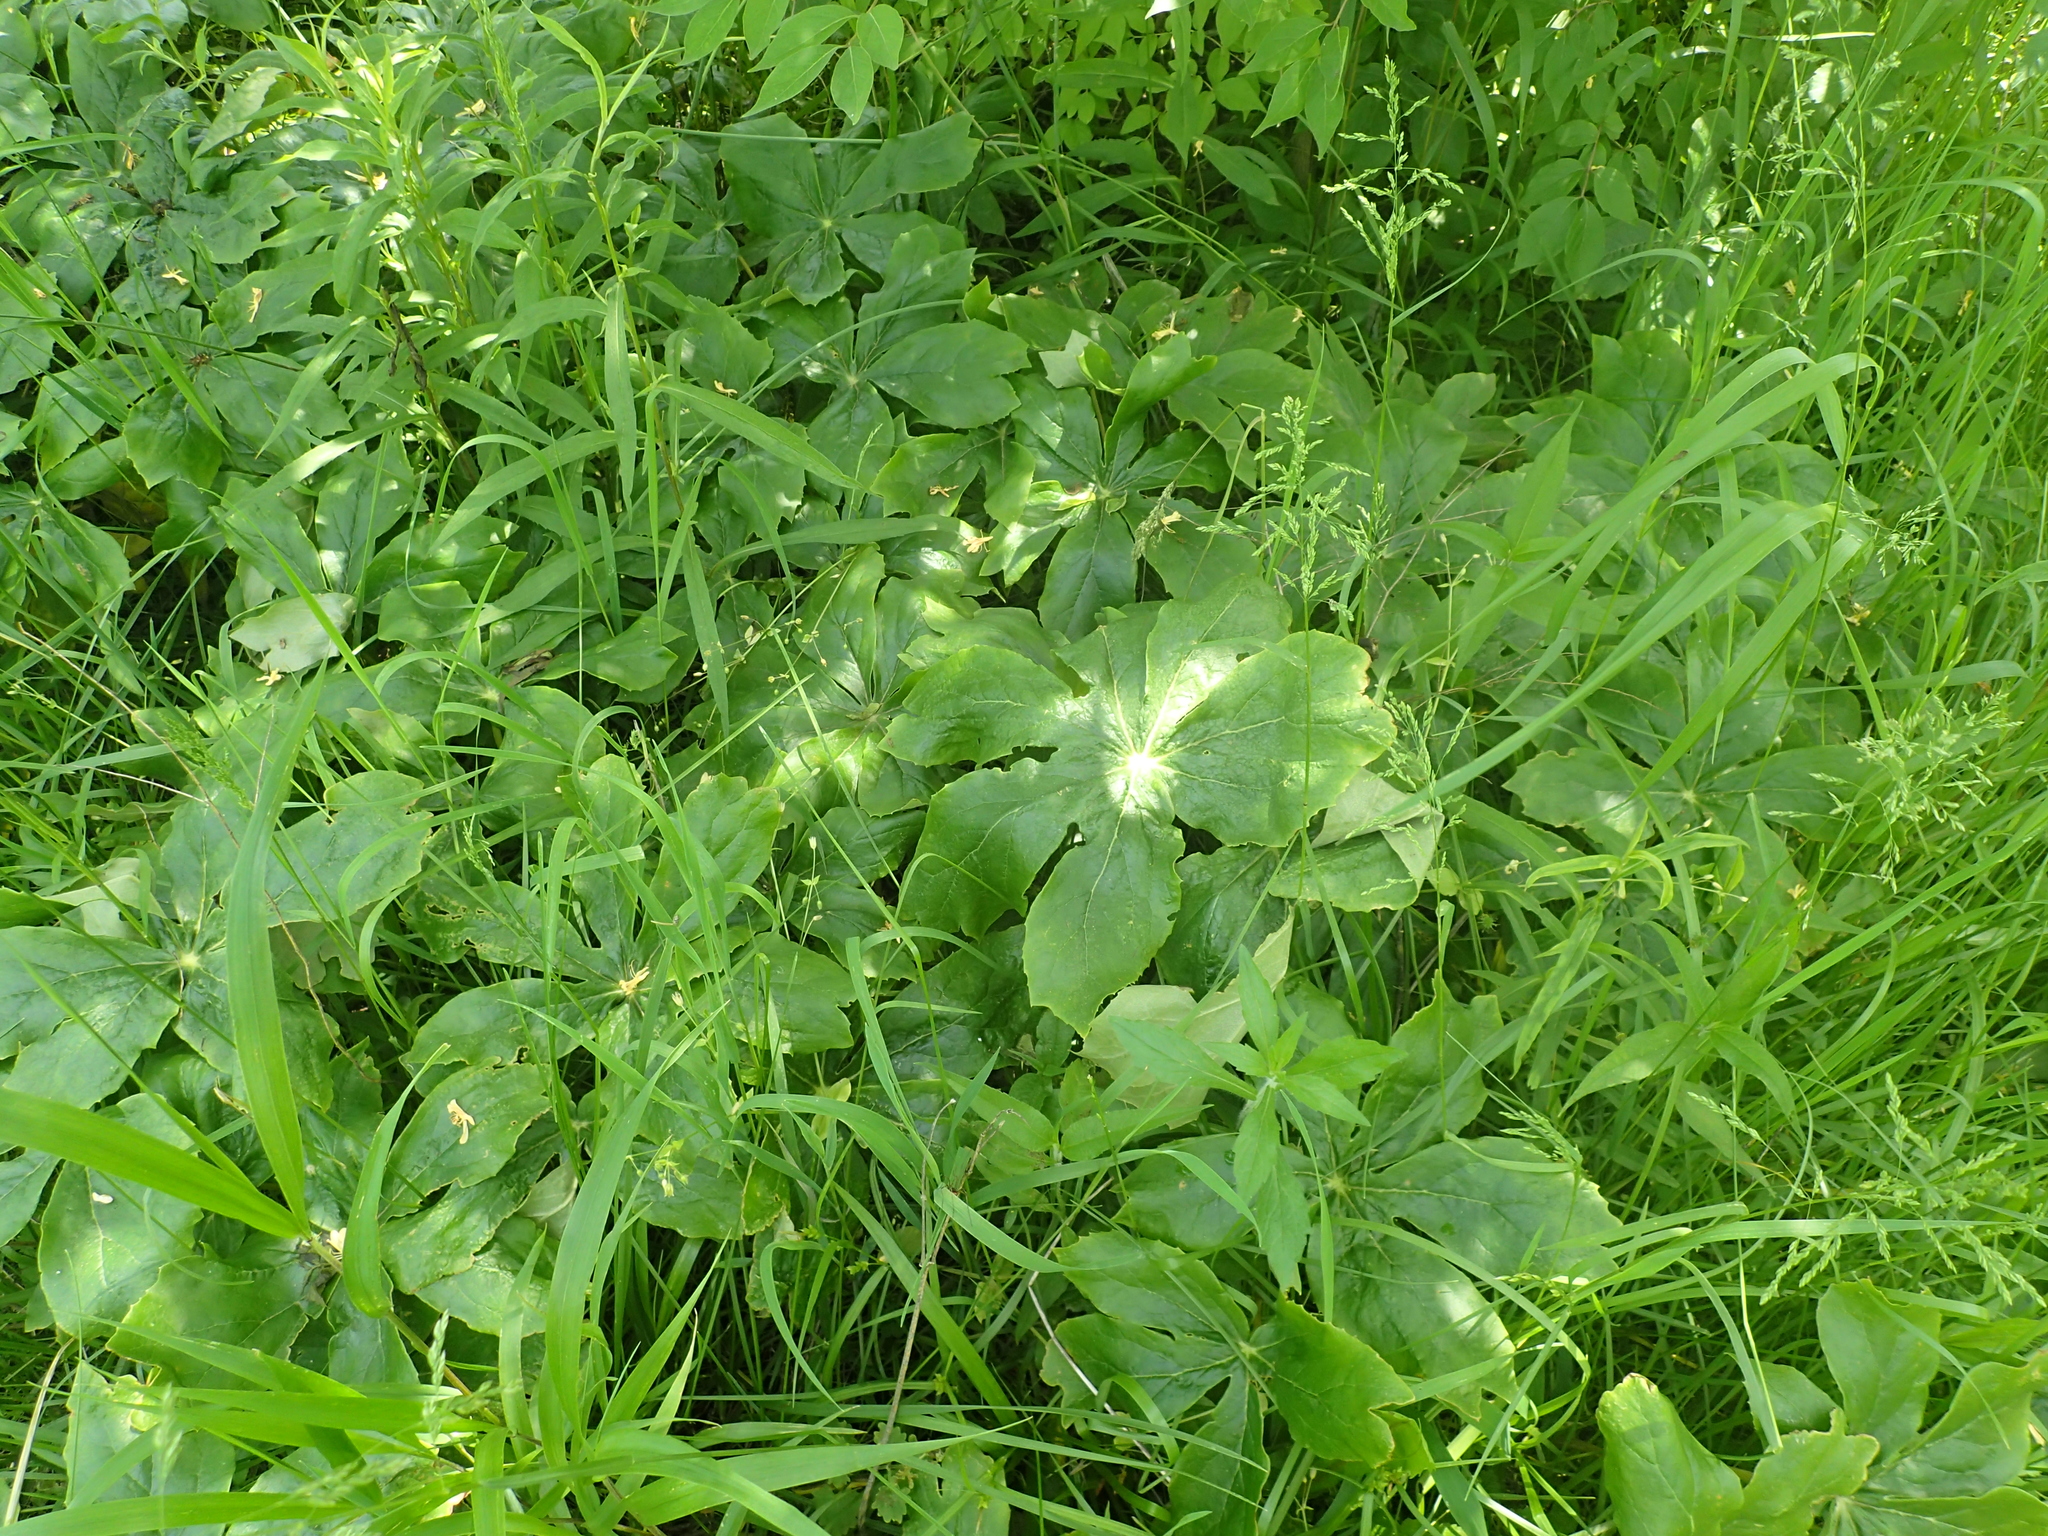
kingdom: Plantae
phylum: Tracheophyta
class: Magnoliopsida
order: Ranunculales
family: Berberidaceae
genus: Podophyllum
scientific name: Podophyllum peltatum
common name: Wild mandrake
